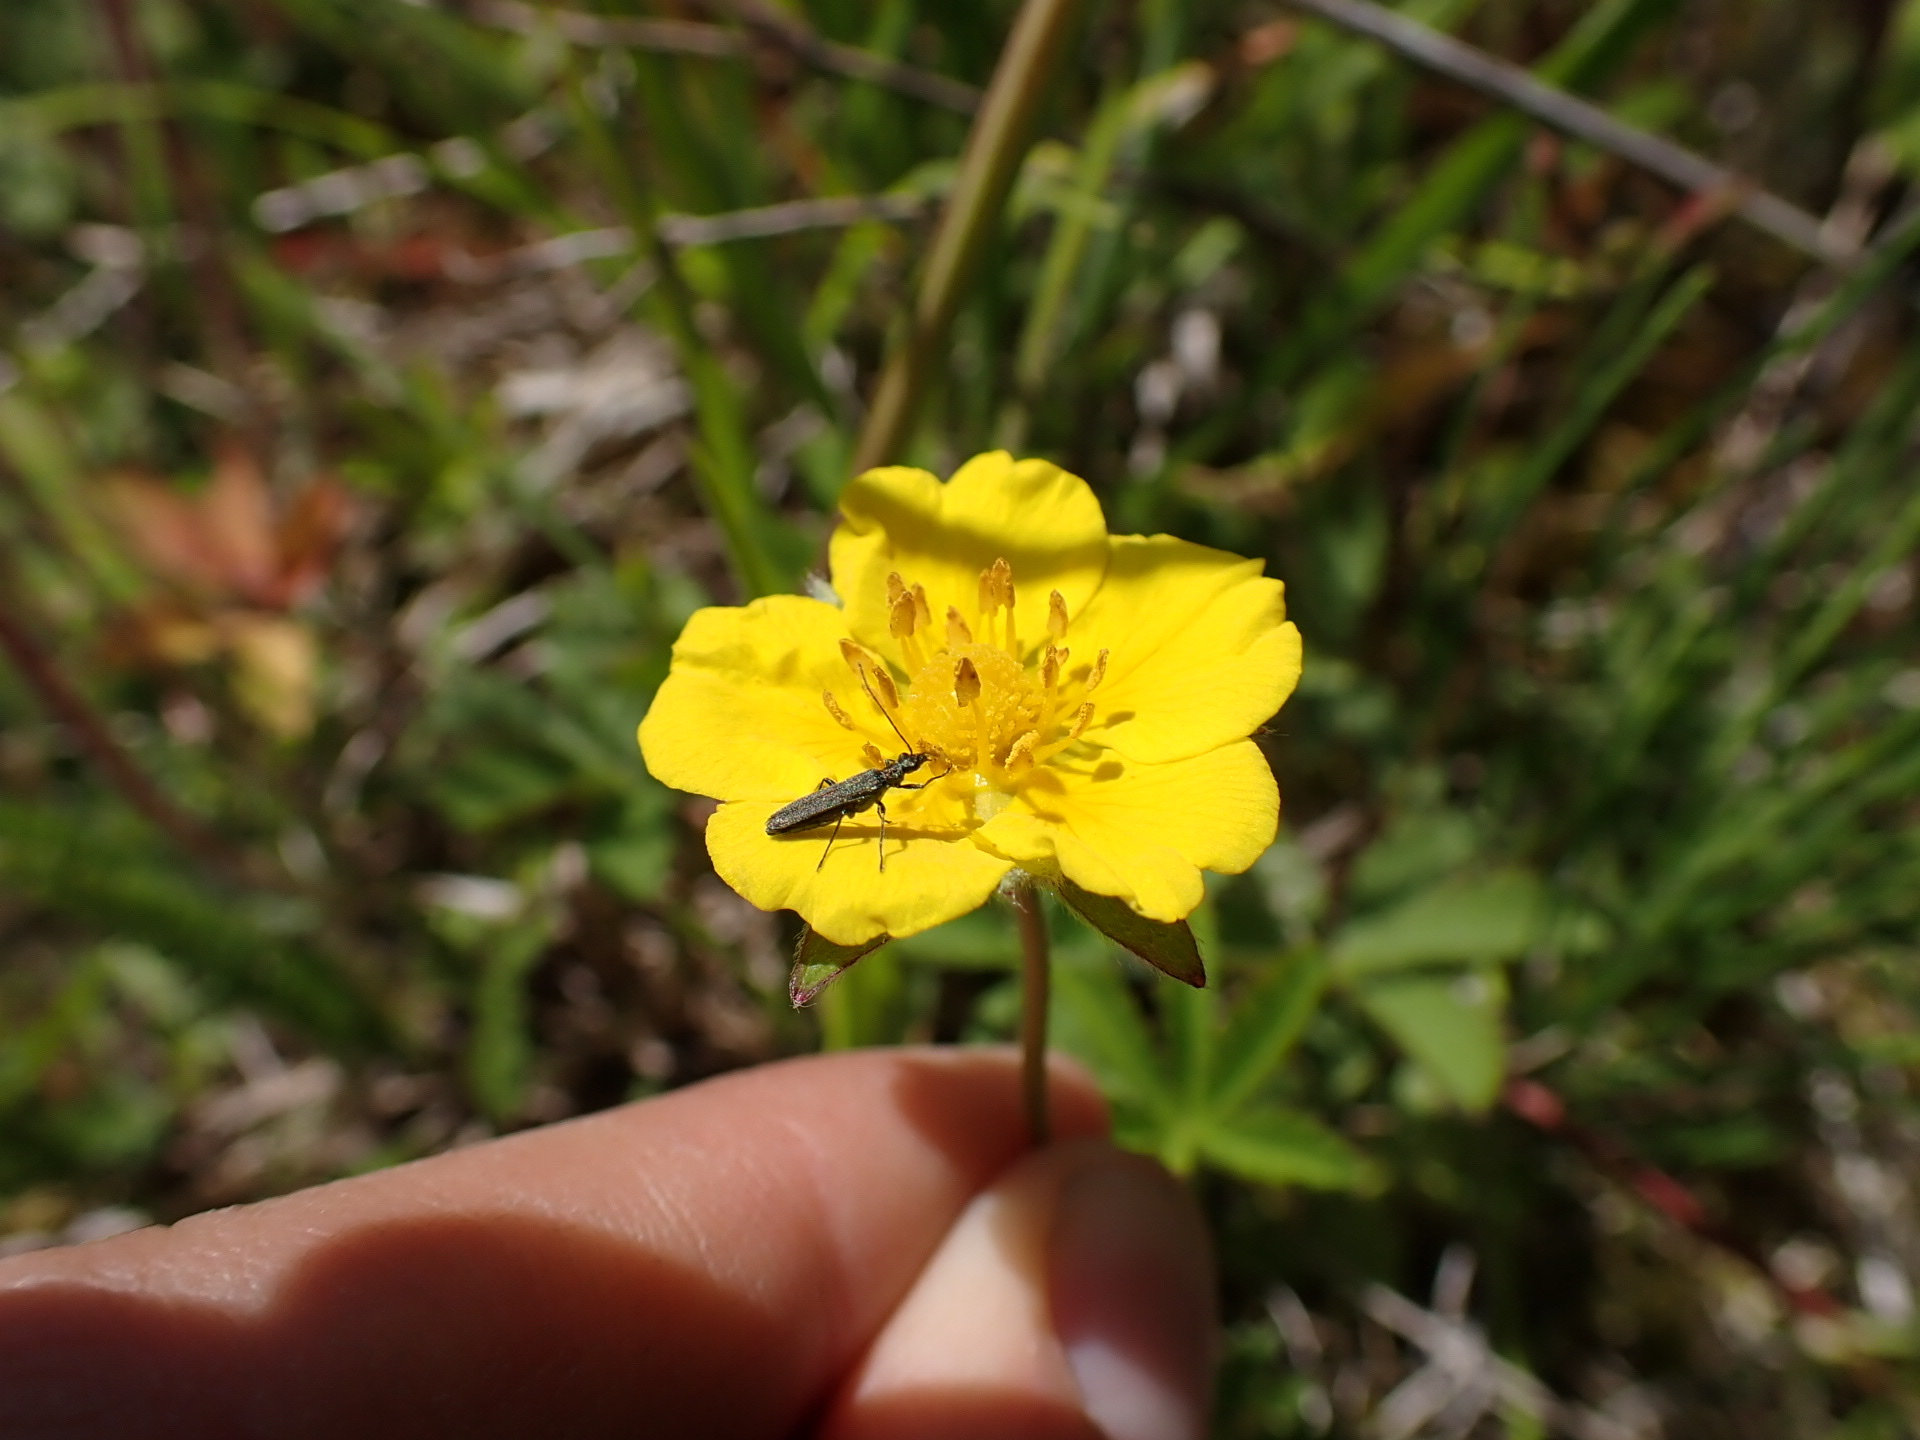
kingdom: Plantae
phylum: Tracheophyta
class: Magnoliopsida
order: Rosales
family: Rosaceae
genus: Potentilla
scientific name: Potentilla reptans
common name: Creeping cinquefoil
